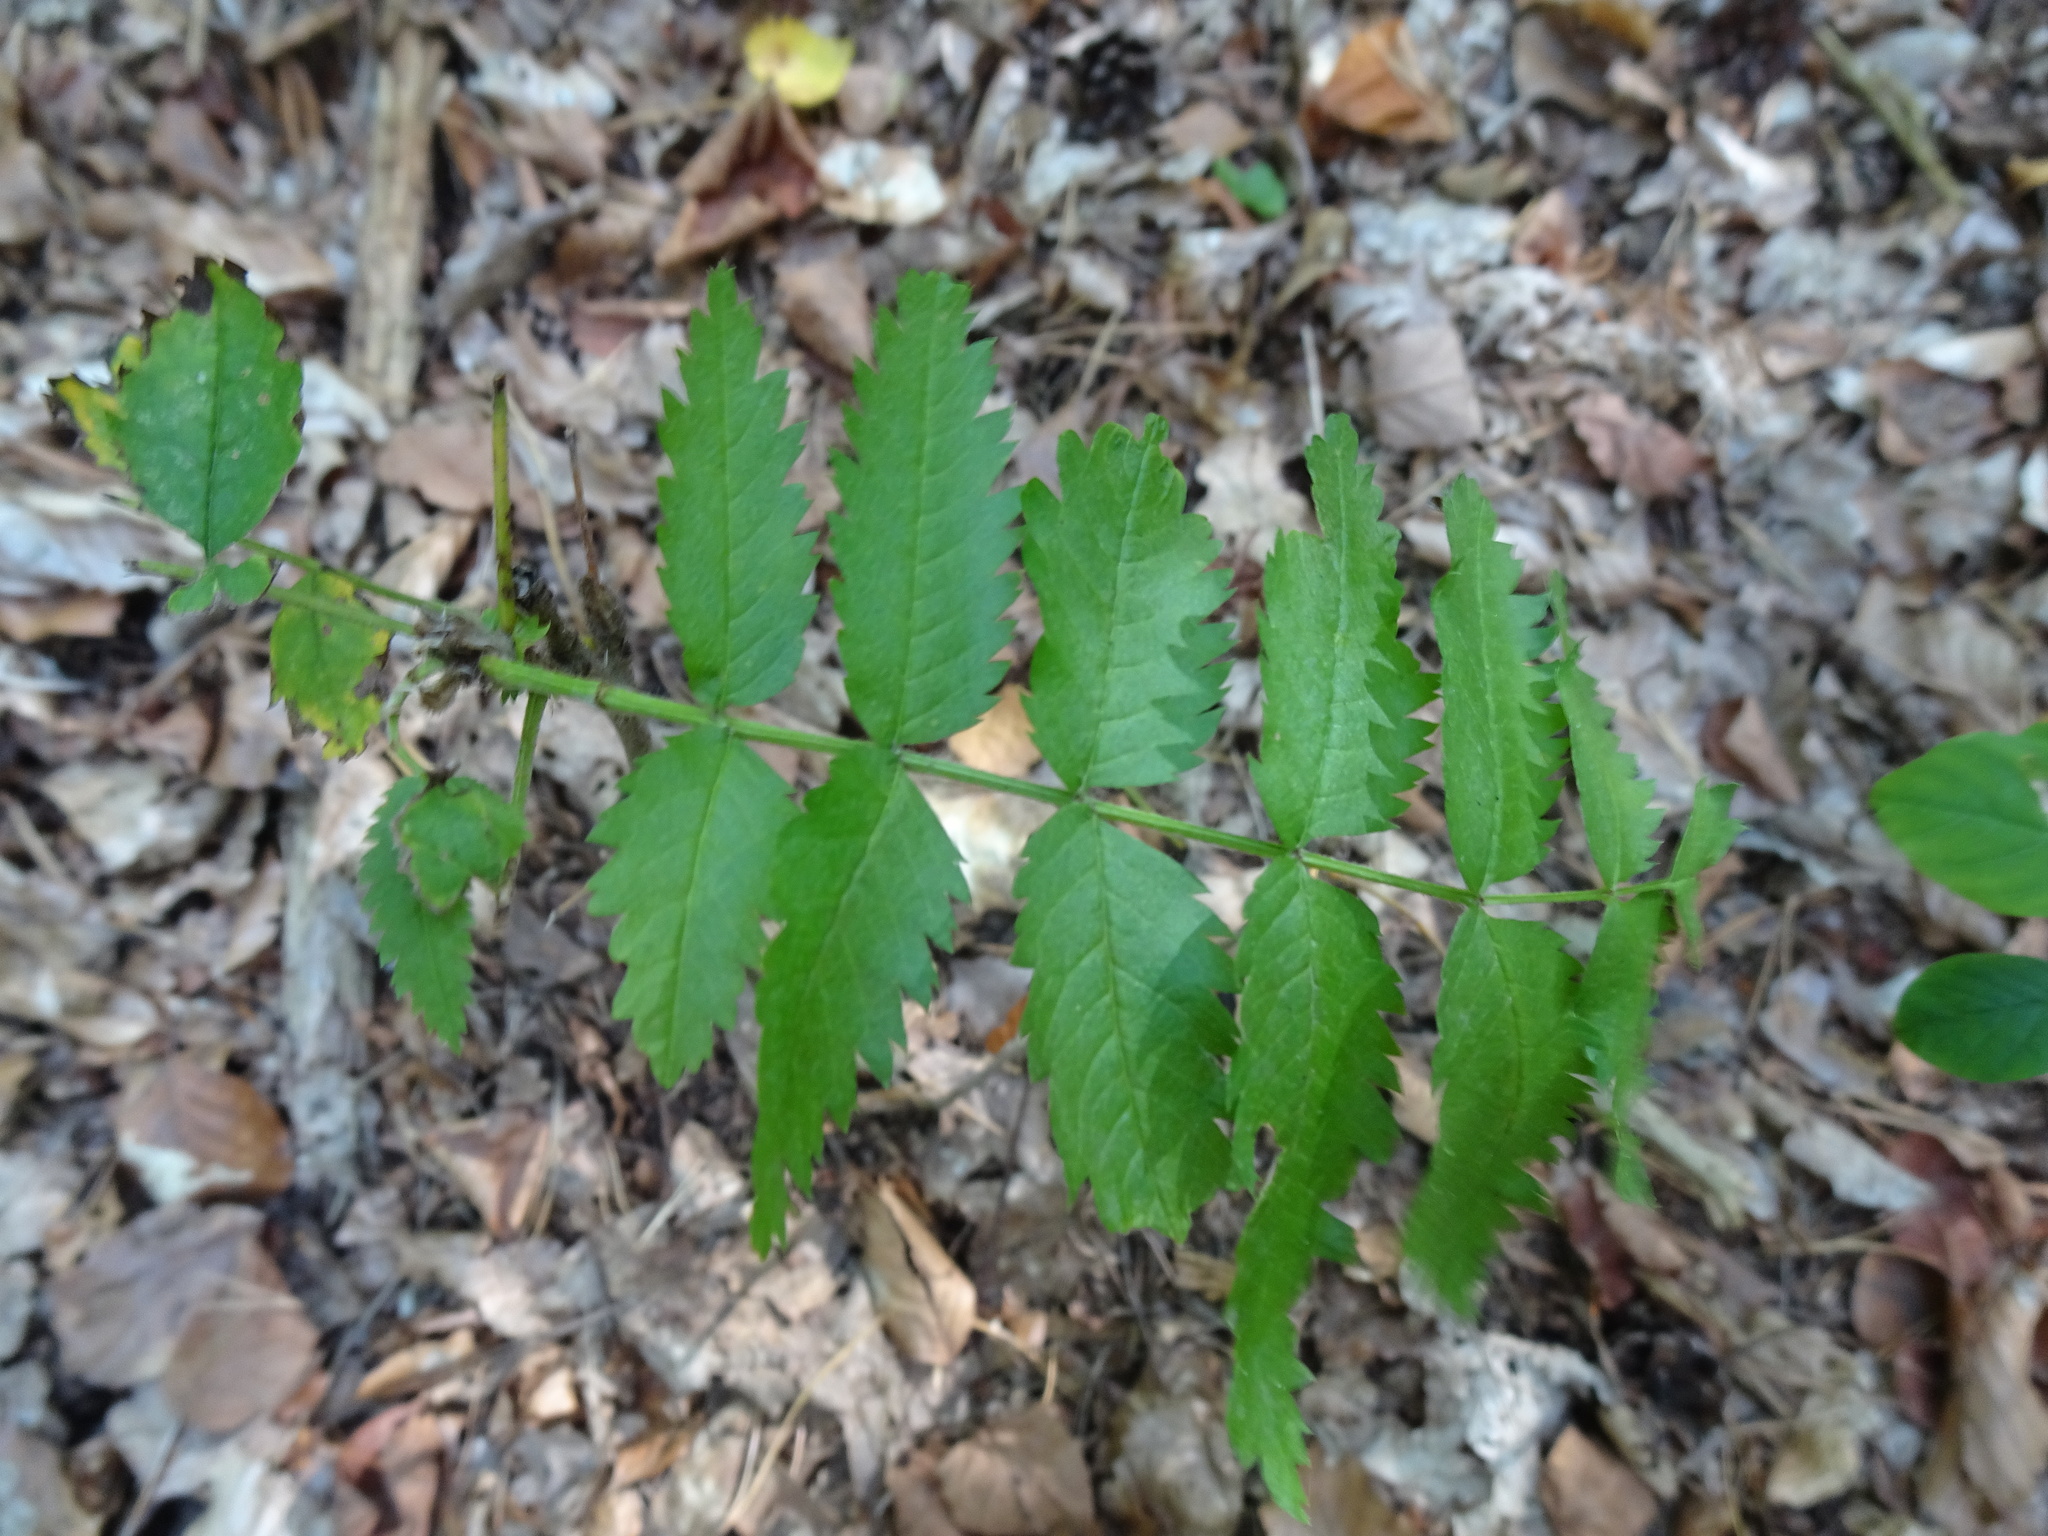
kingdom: Plantae
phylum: Tracheophyta
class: Magnoliopsida
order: Rosales
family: Rosaceae
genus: Sorbus
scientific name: Sorbus aucuparia
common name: Rowan
